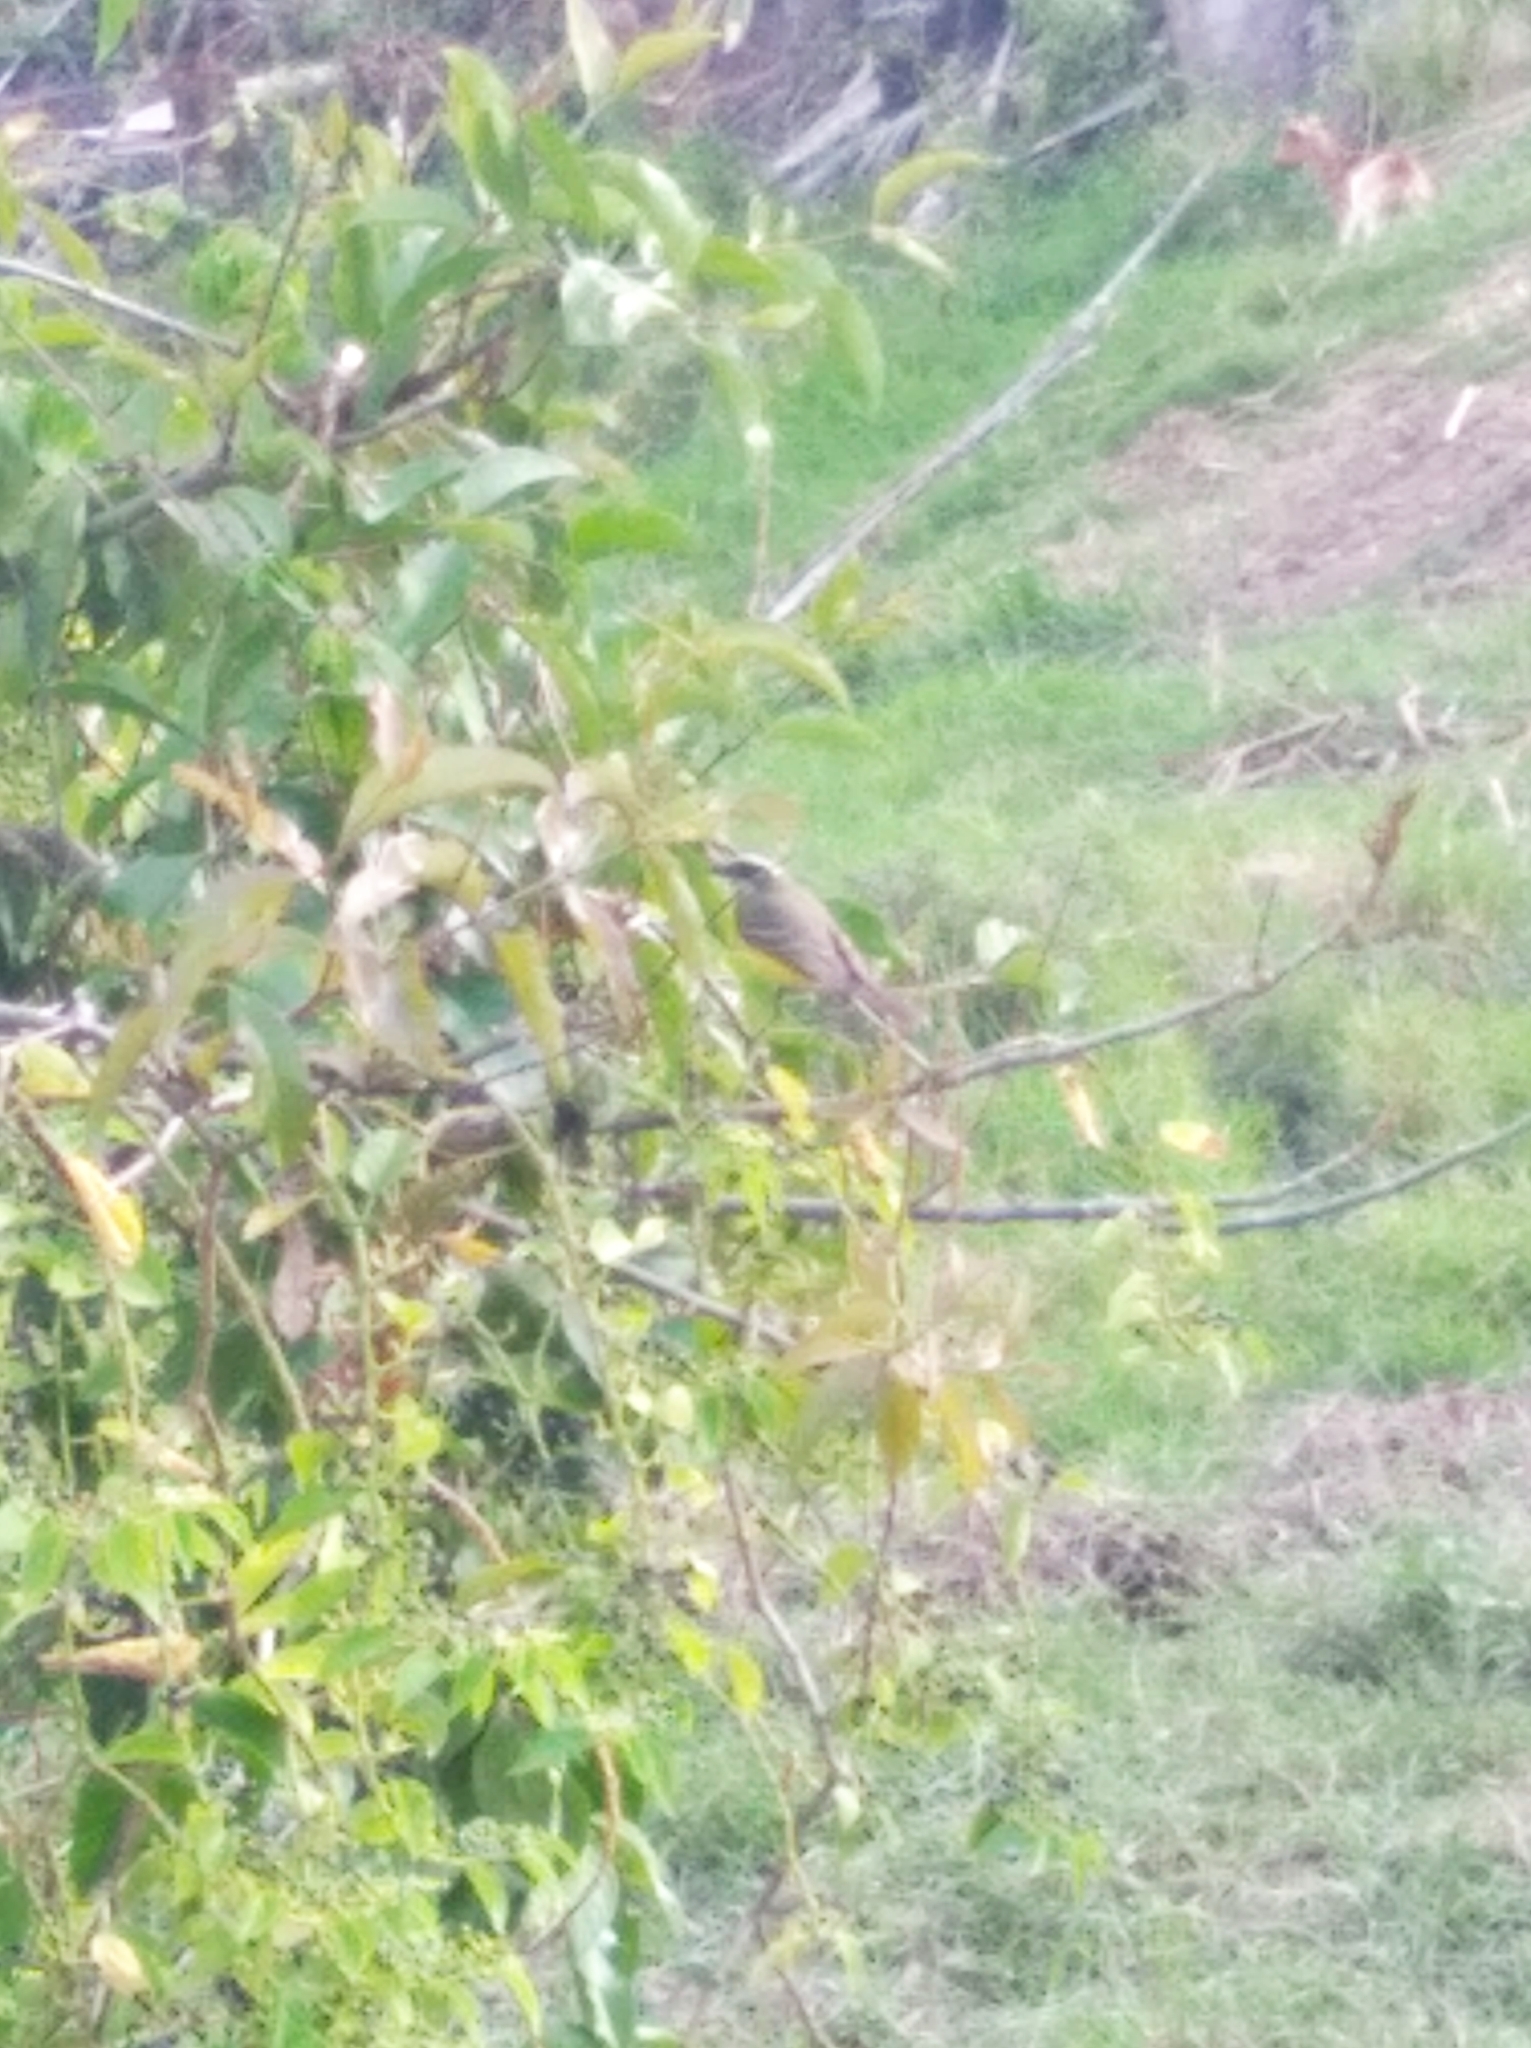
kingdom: Animalia
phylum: Chordata
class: Aves
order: Passeriformes
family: Tyrannidae
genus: Myiozetetes
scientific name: Myiozetetes similis
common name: Social flycatcher
